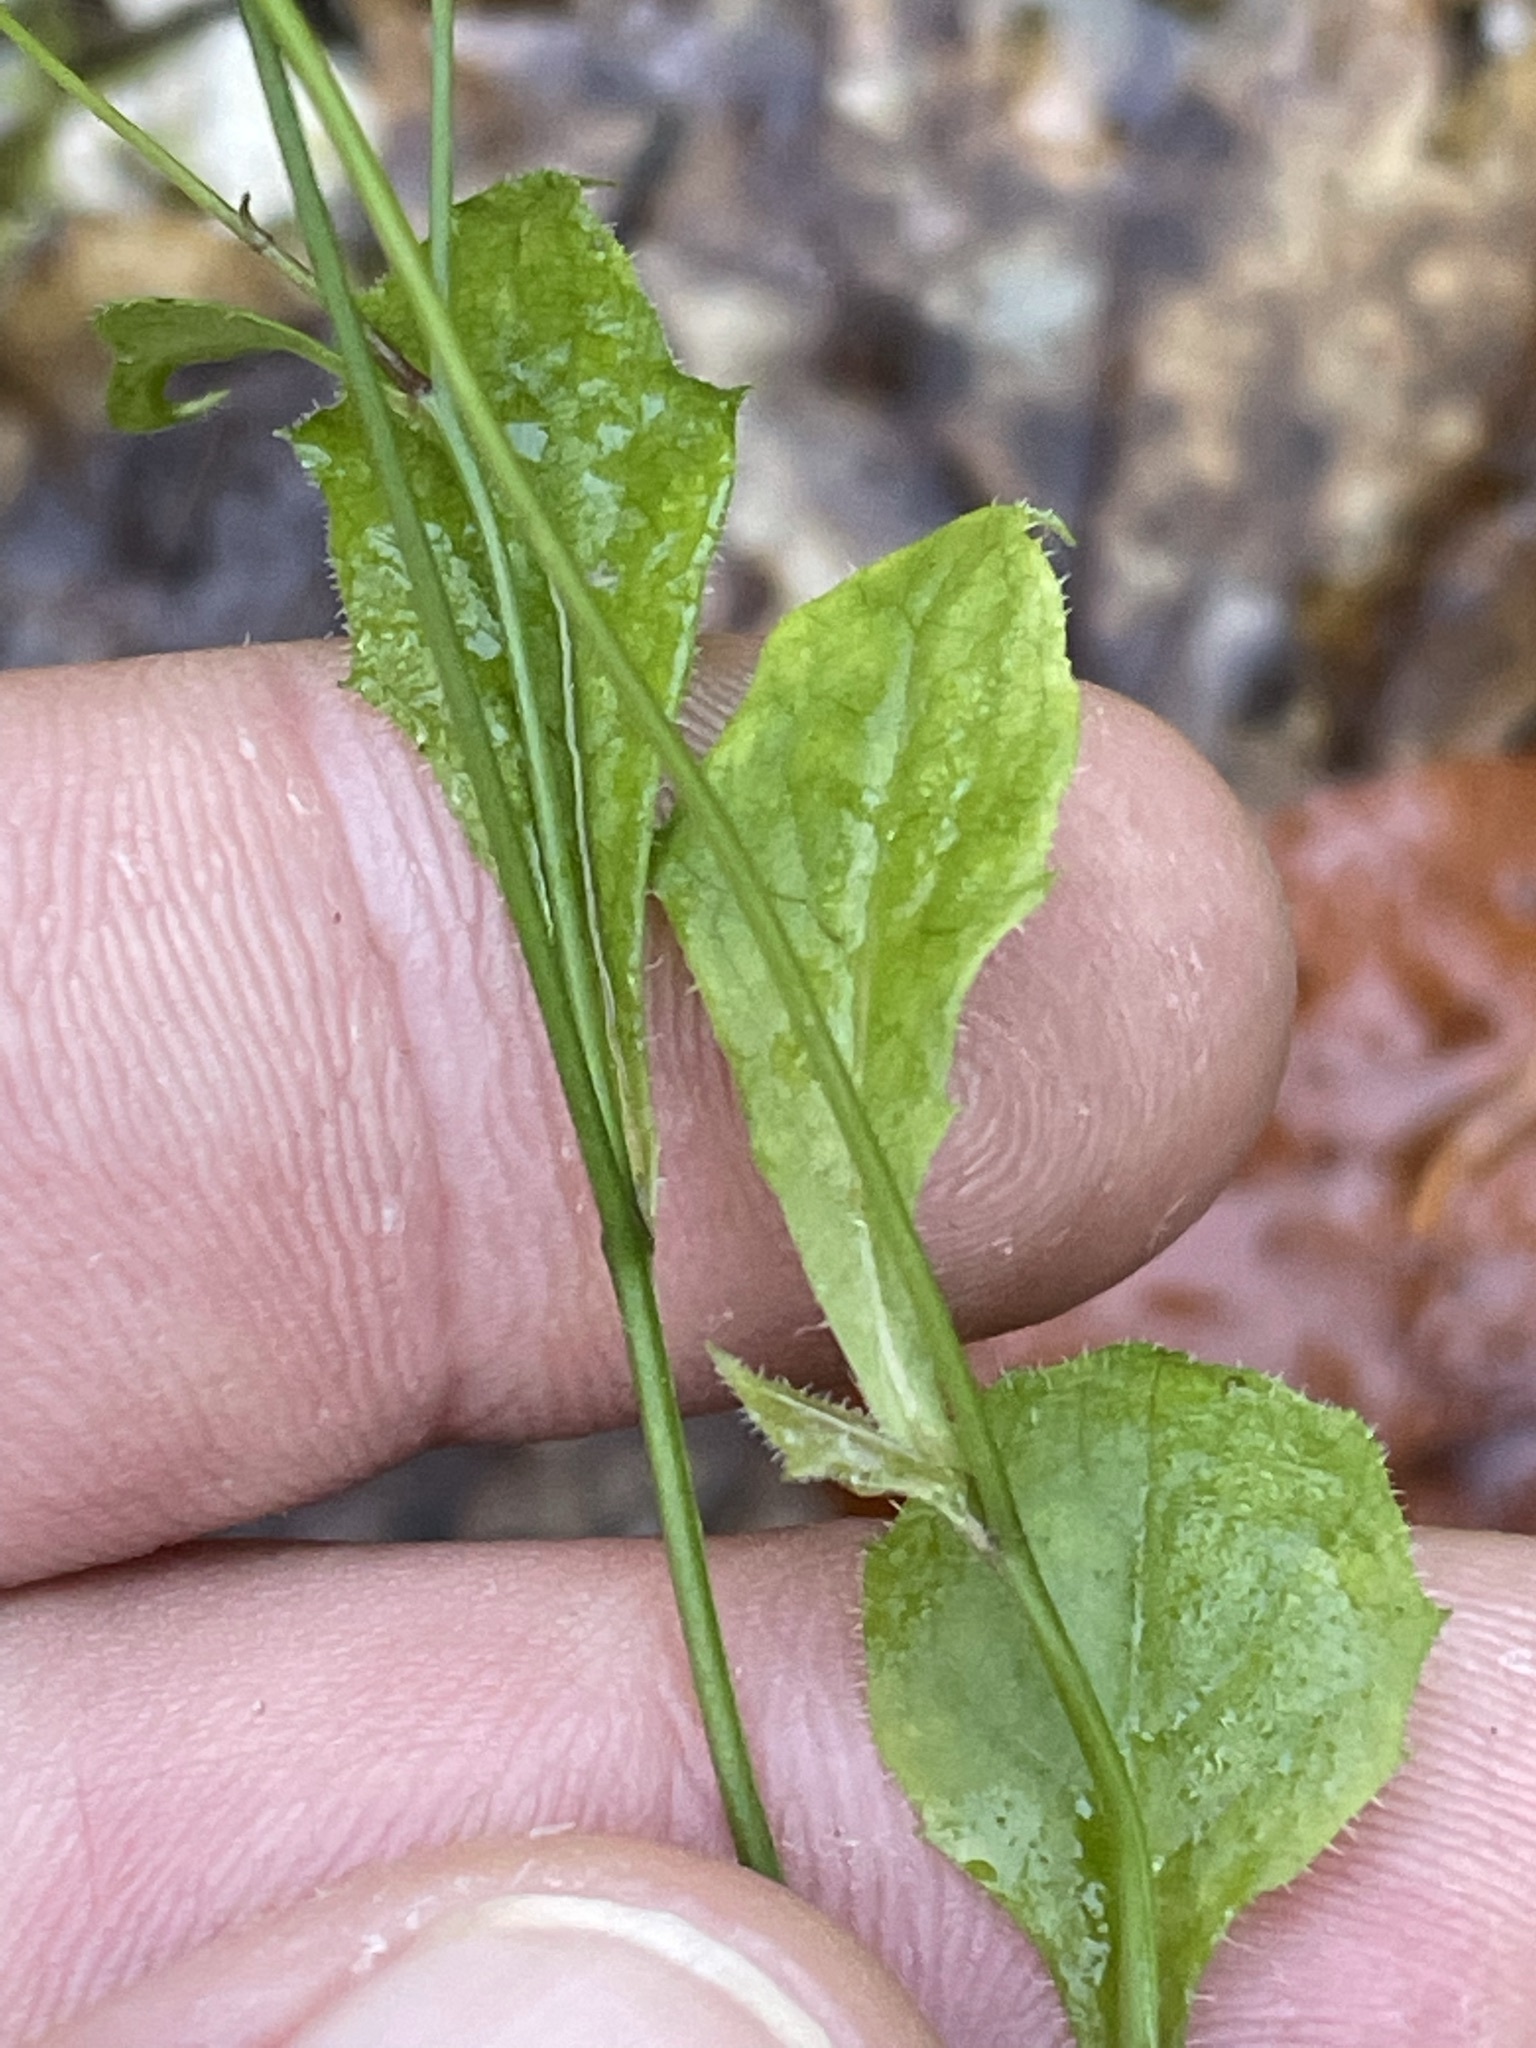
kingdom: Plantae
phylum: Tracheophyta
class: Magnoliopsida
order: Asterales
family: Asteraceae
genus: Lapsana
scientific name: Lapsana communis
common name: Nipplewort
